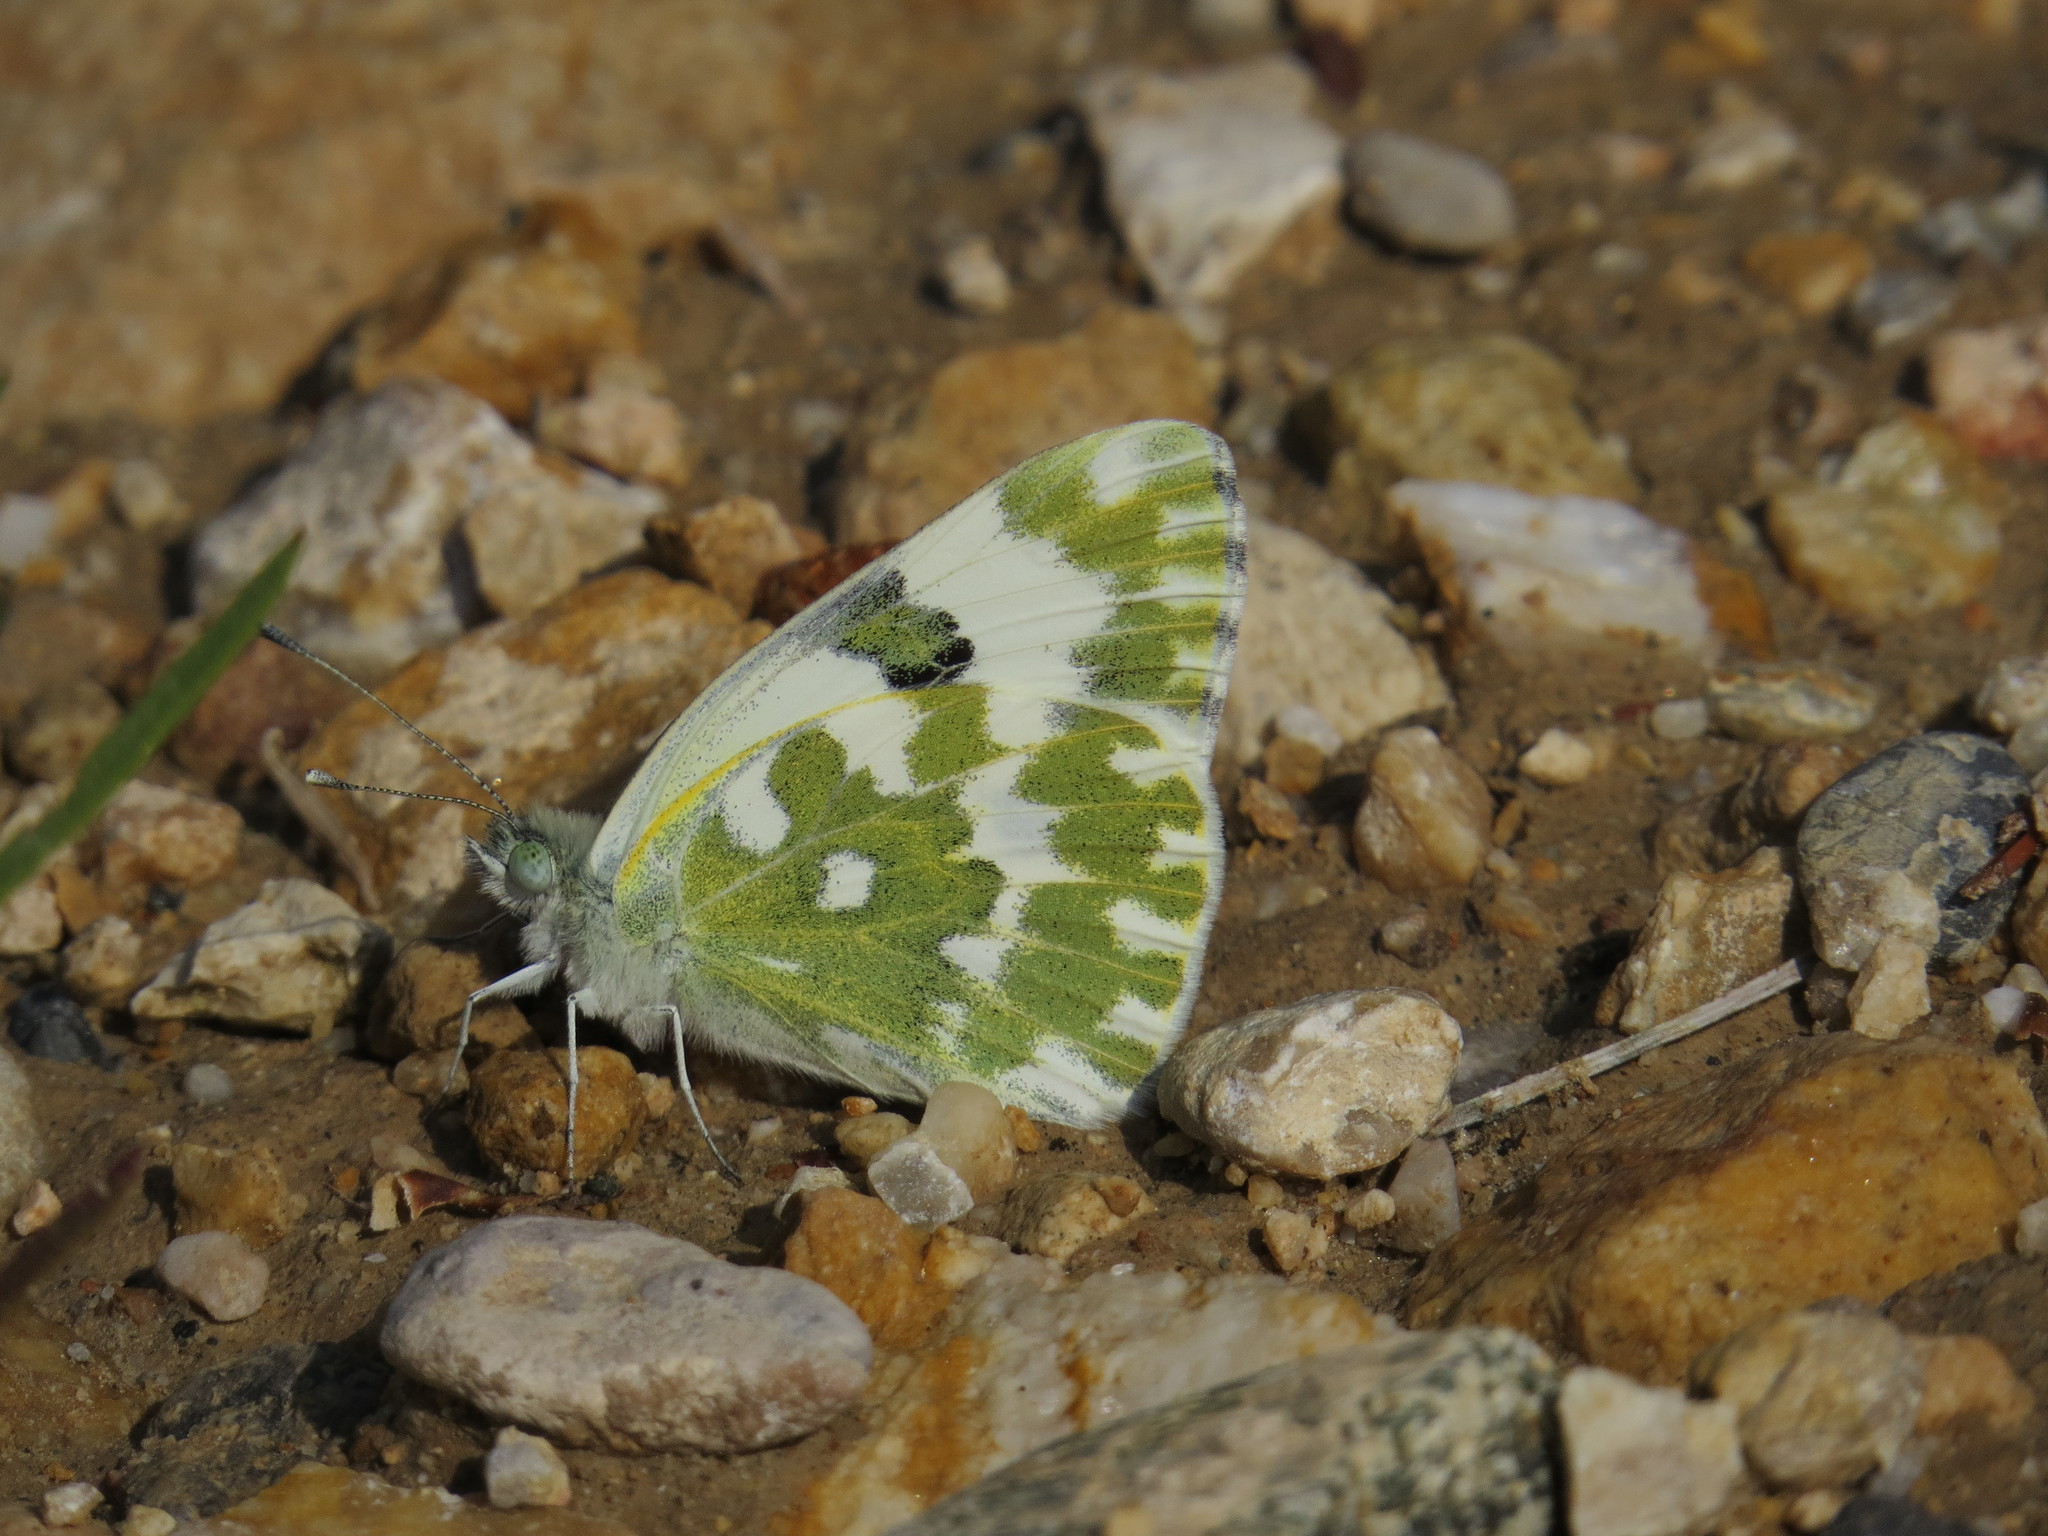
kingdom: Animalia
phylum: Arthropoda
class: Insecta
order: Lepidoptera
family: Pieridae
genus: Pontia
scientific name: Pontia edusa
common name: Eastern bath white
